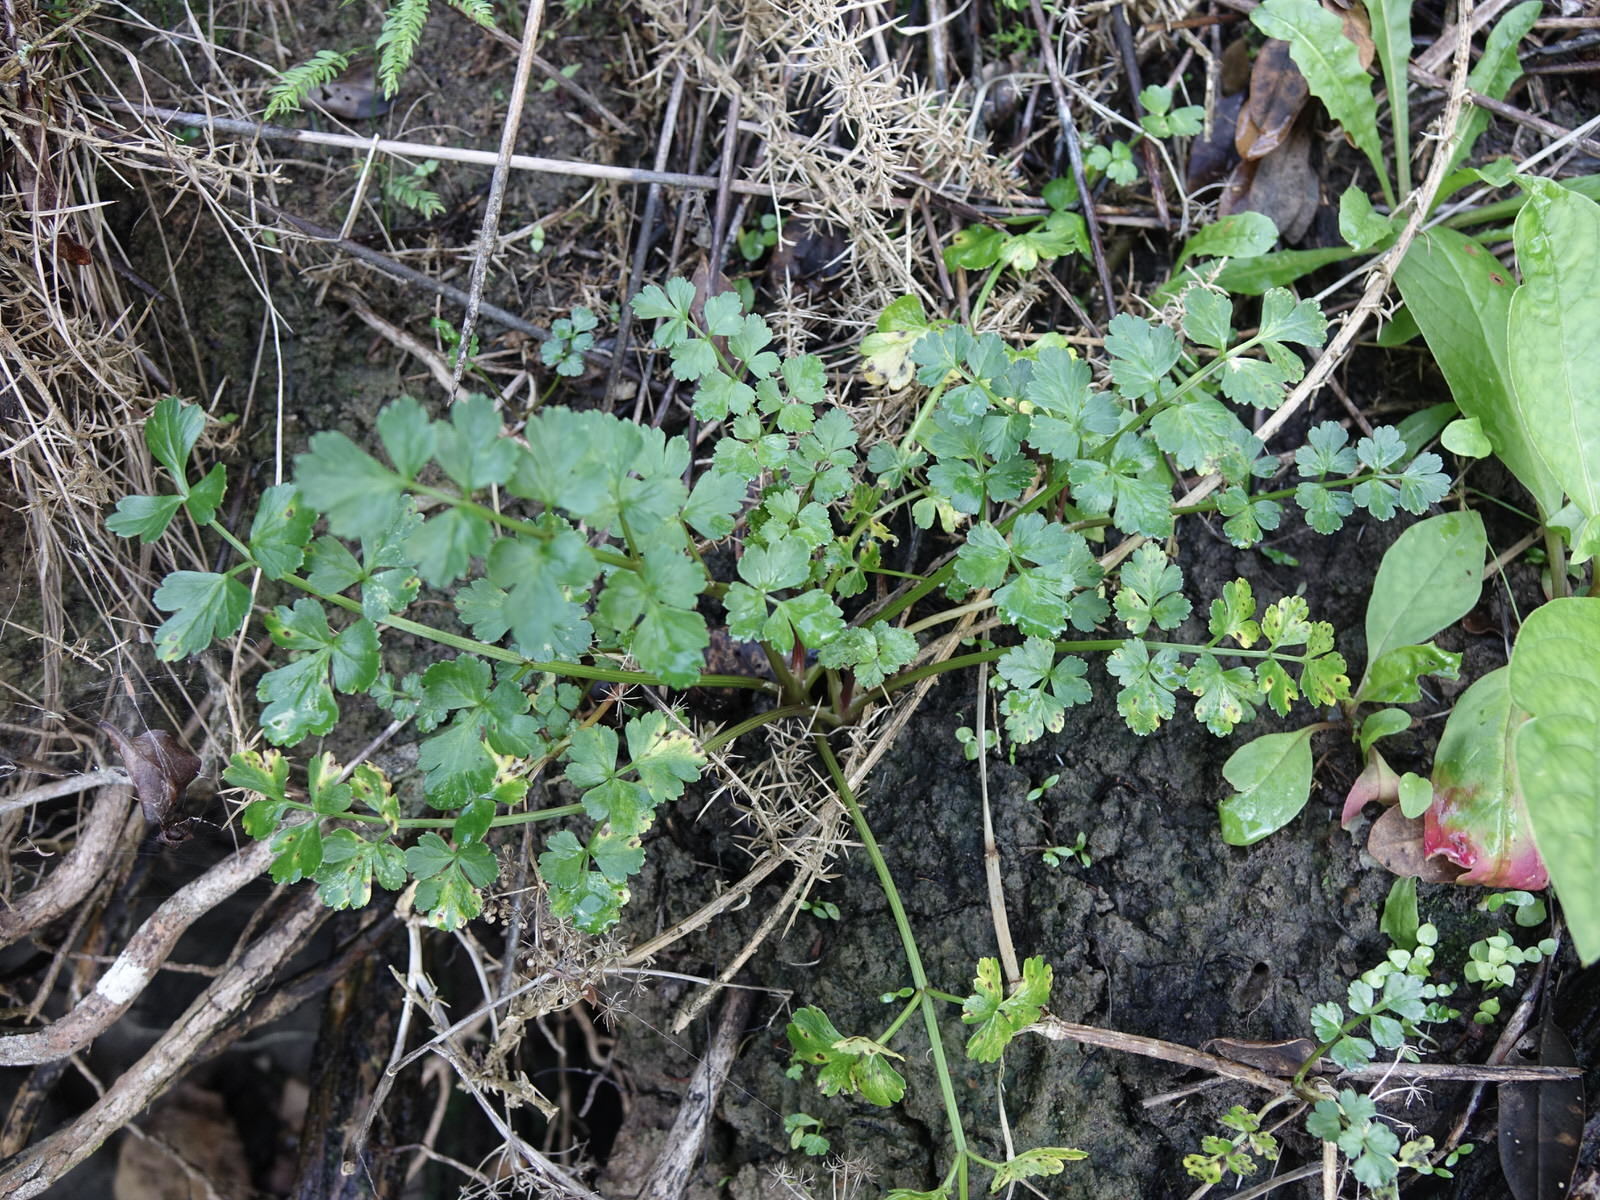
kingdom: Plantae
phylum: Tracheophyta
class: Magnoliopsida
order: Apiales
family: Apiaceae
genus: Apium
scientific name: Apium prostratum
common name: Prostrate marshwort
